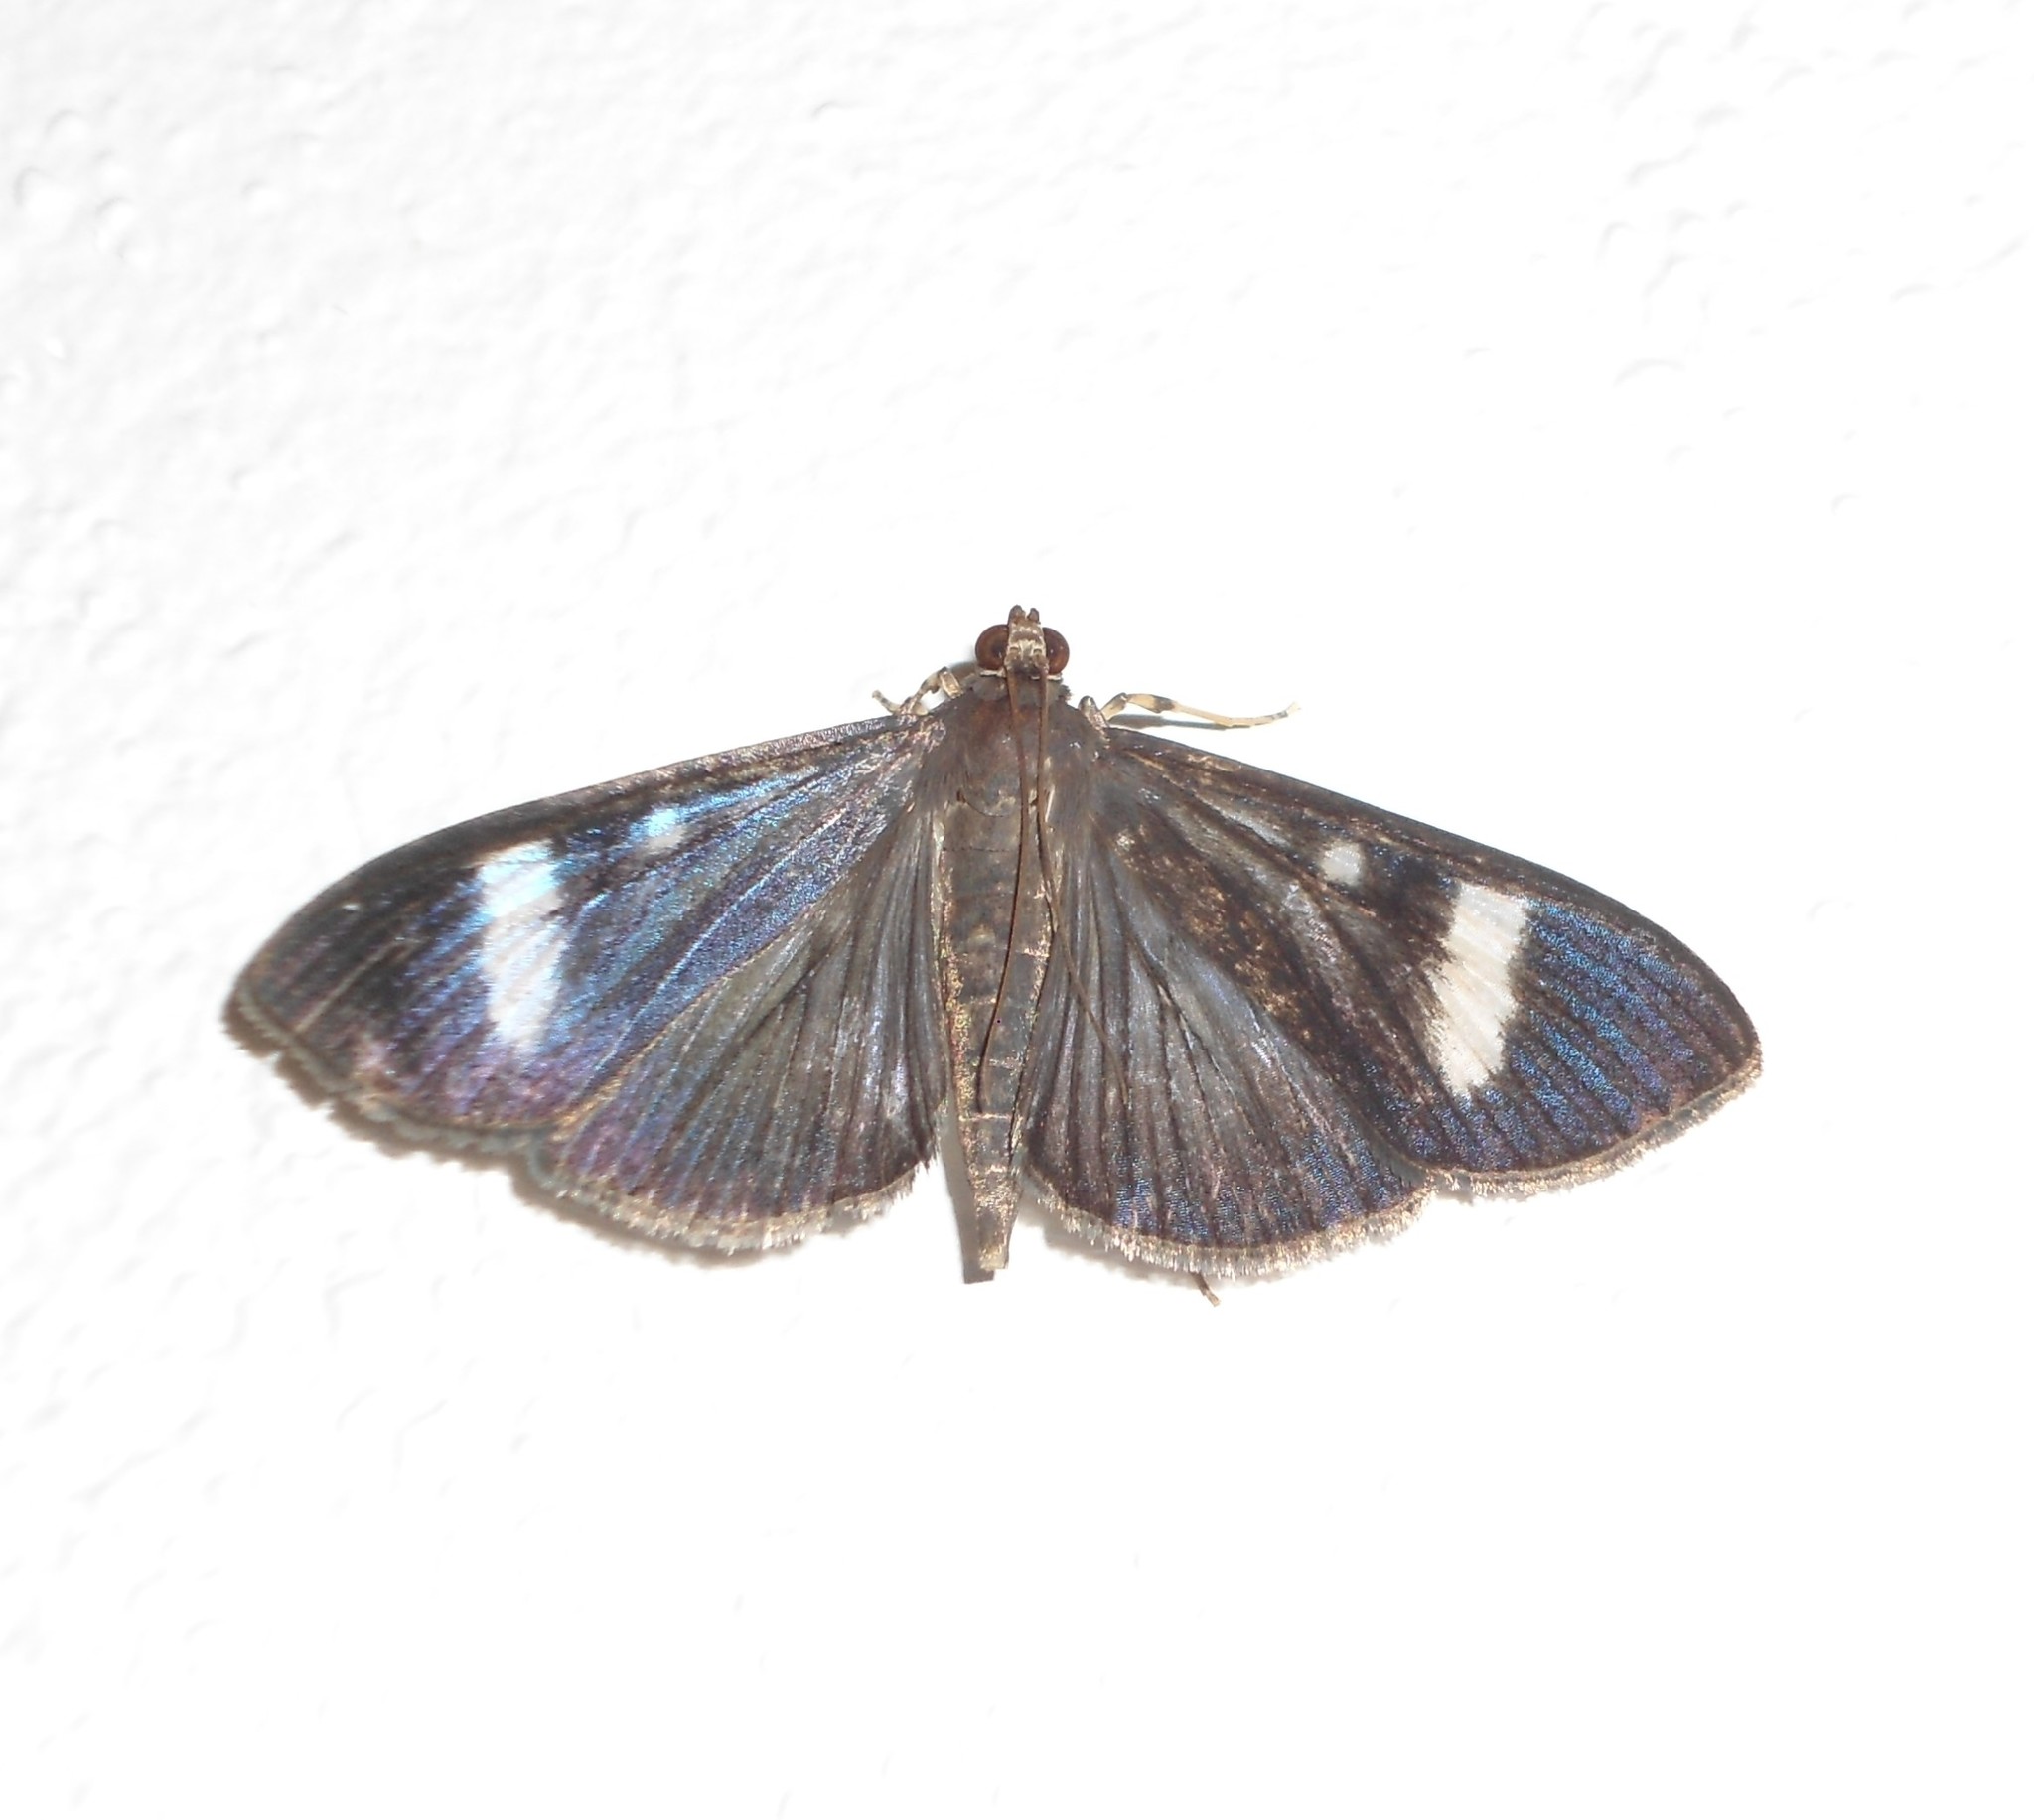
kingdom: Animalia
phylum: Arthropoda
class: Insecta
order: Lepidoptera
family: Crambidae
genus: Phostria
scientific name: Phostria Erilusa leucoplagialis
